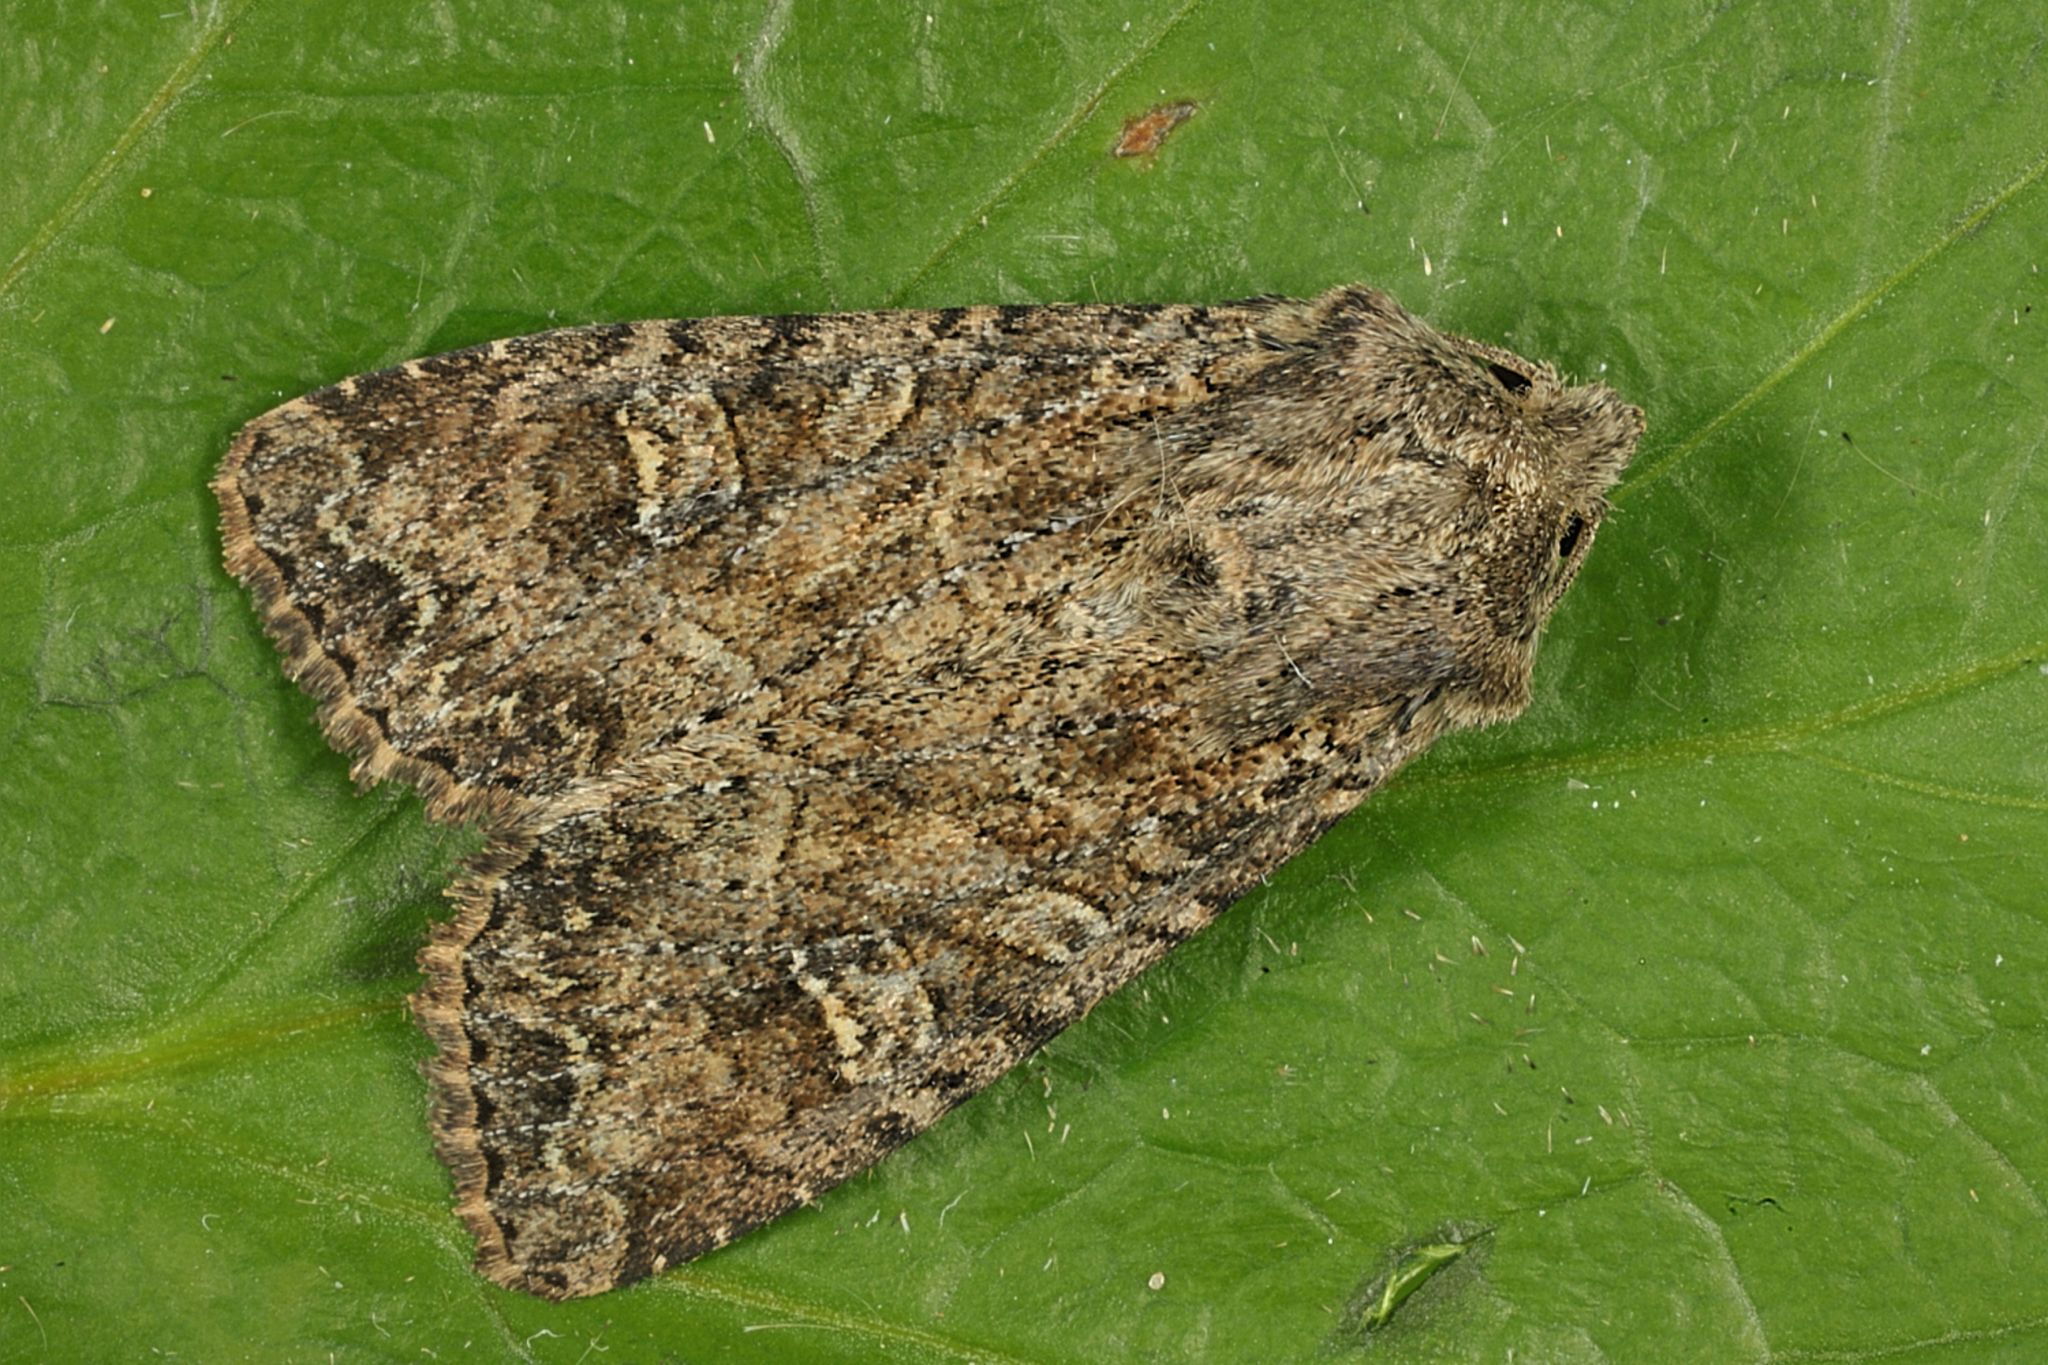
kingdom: Animalia
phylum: Arthropoda
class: Insecta
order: Lepidoptera
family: Noctuidae
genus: Apamea
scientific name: Apamea remissa
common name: Dusky brocade
